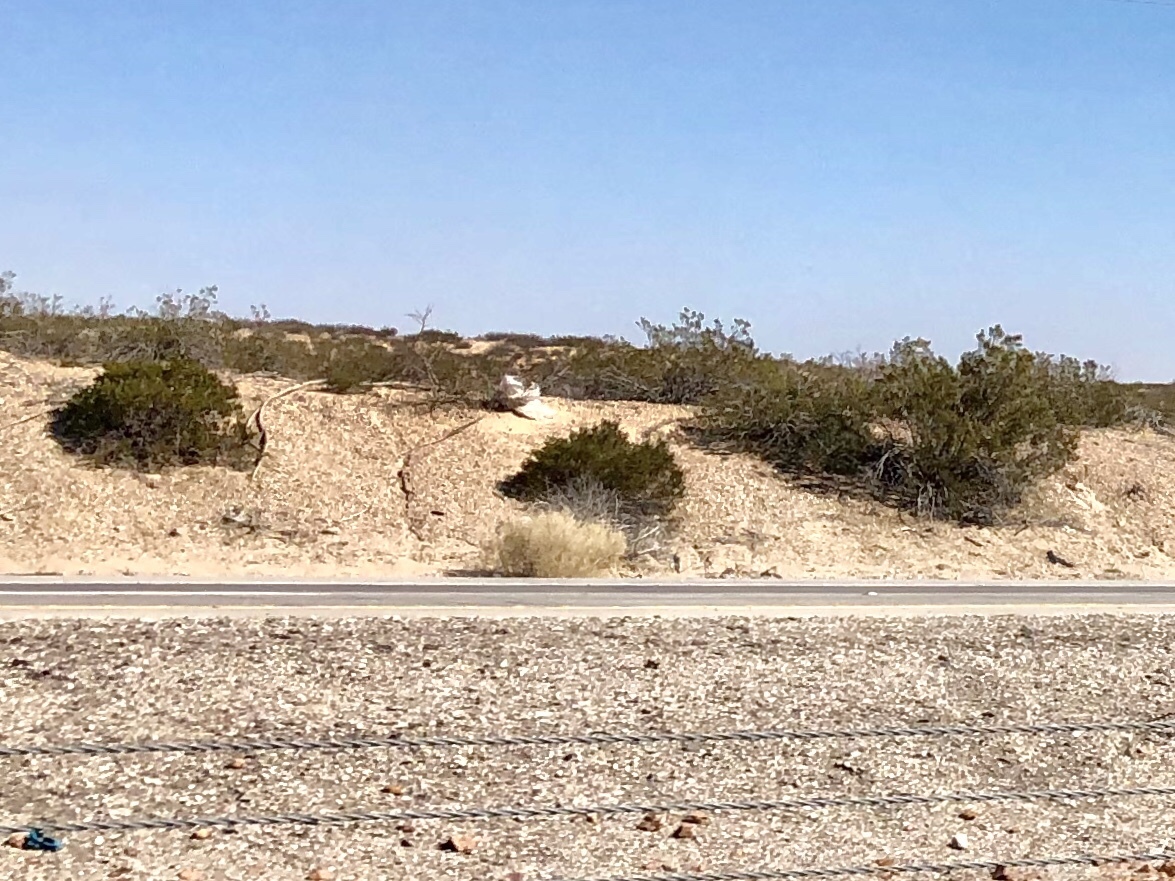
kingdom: Plantae
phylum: Tracheophyta
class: Magnoliopsida
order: Zygophyllales
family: Zygophyllaceae
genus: Larrea
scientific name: Larrea tridentata
